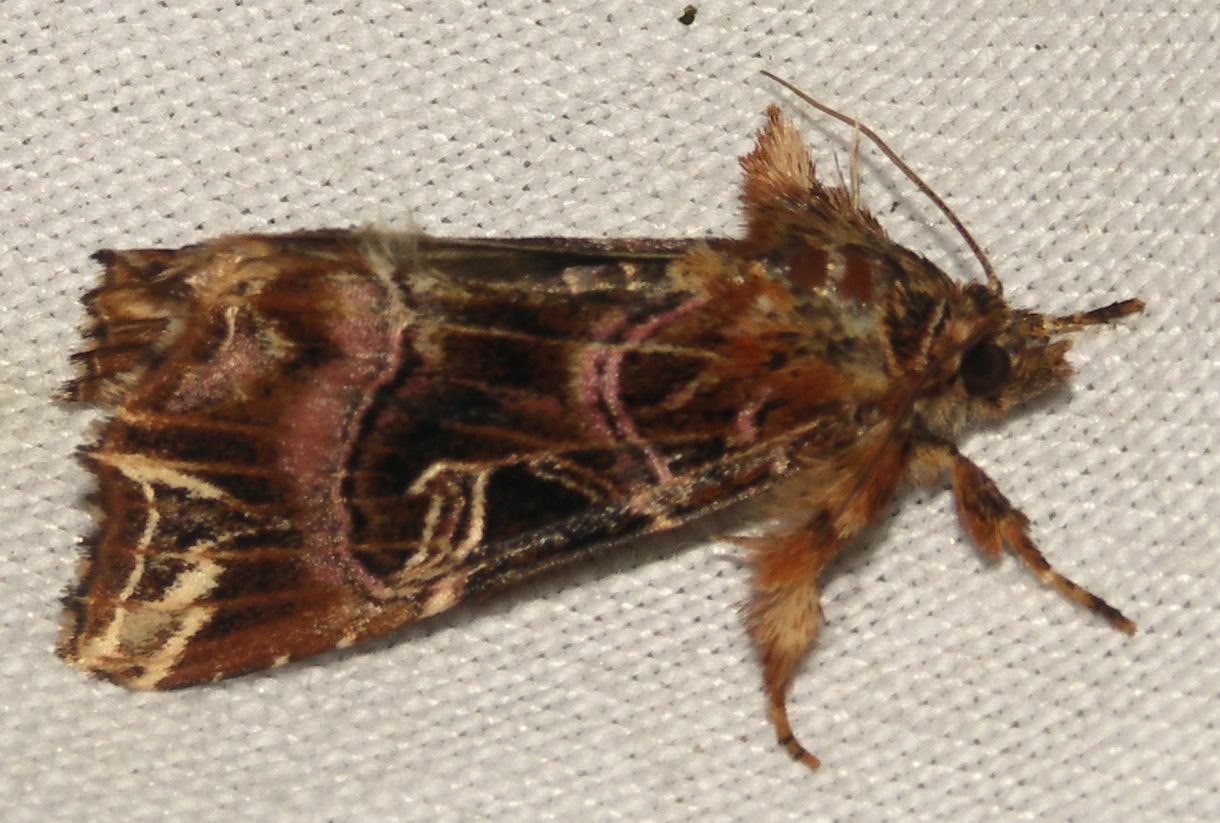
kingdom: Animalia
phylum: Arthropoda
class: Insecta
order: Lepidoptera
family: Noctuidae
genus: Callopistria
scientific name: Callopistria juventina
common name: Latin
